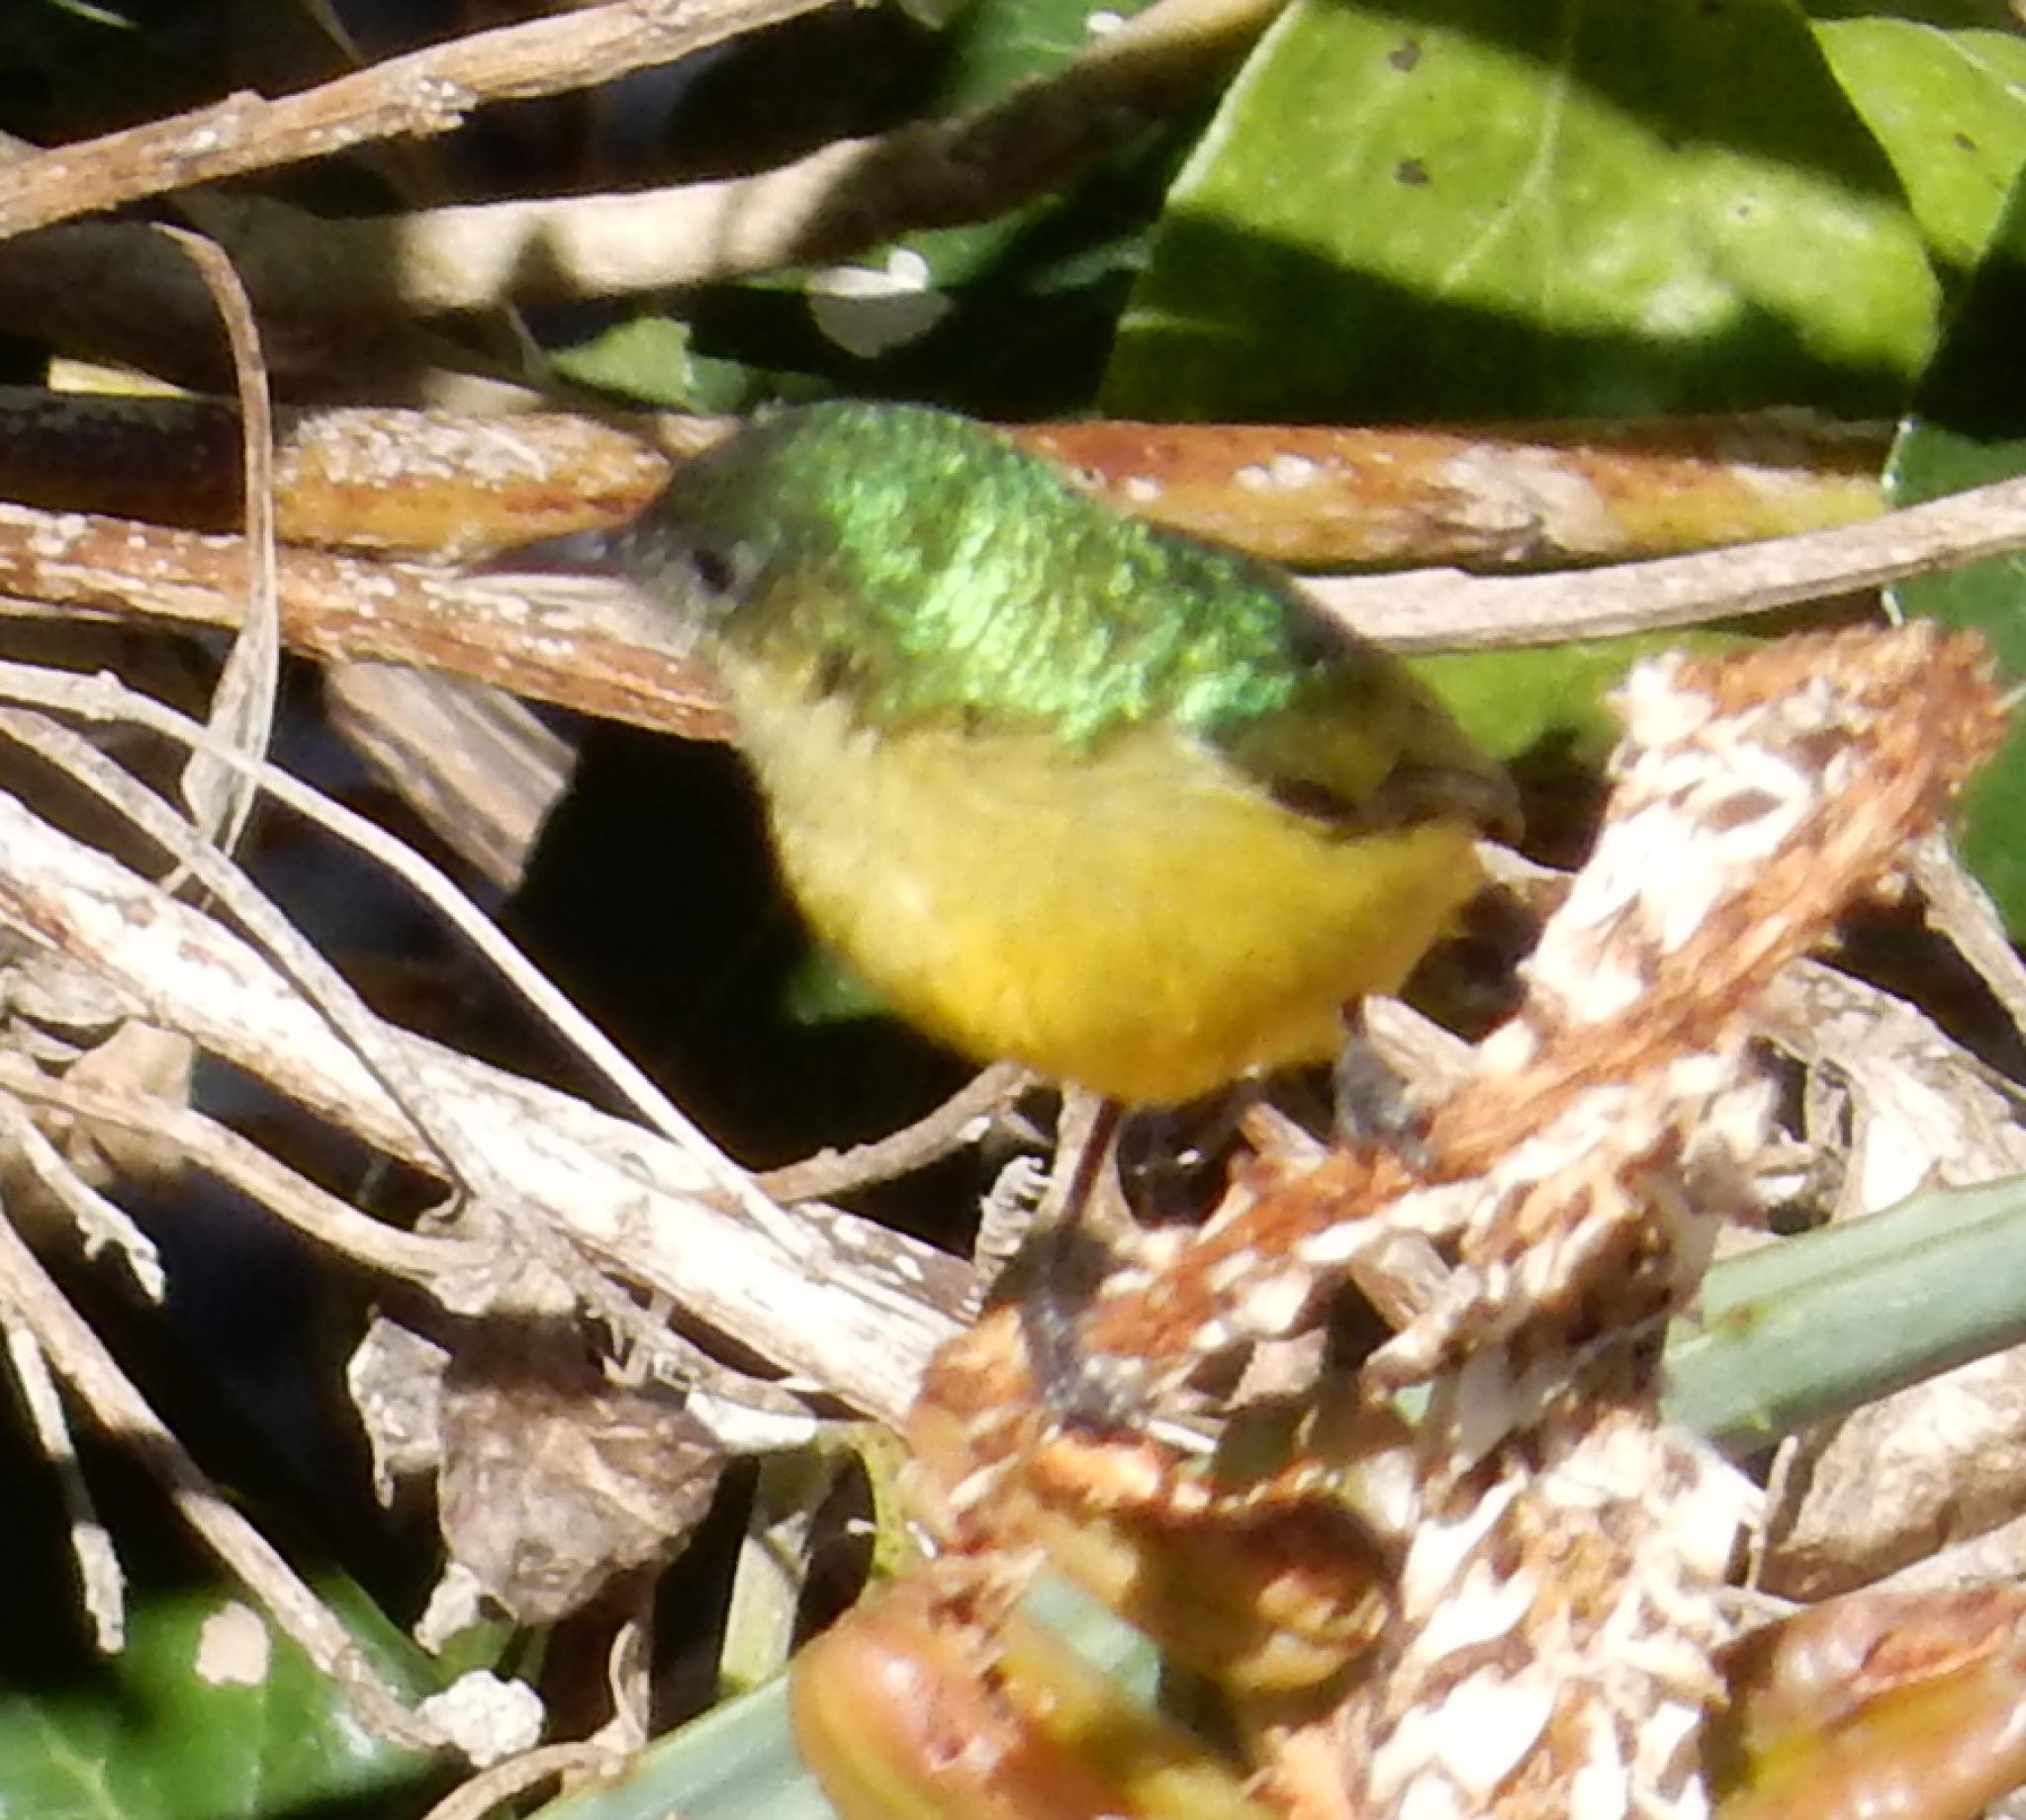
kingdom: Animalia
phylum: Chordata
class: Aves
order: Passeriformes
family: Nectariniidae
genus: Hedydipna
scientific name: Hedydipna collaris
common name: Collared sunbird
